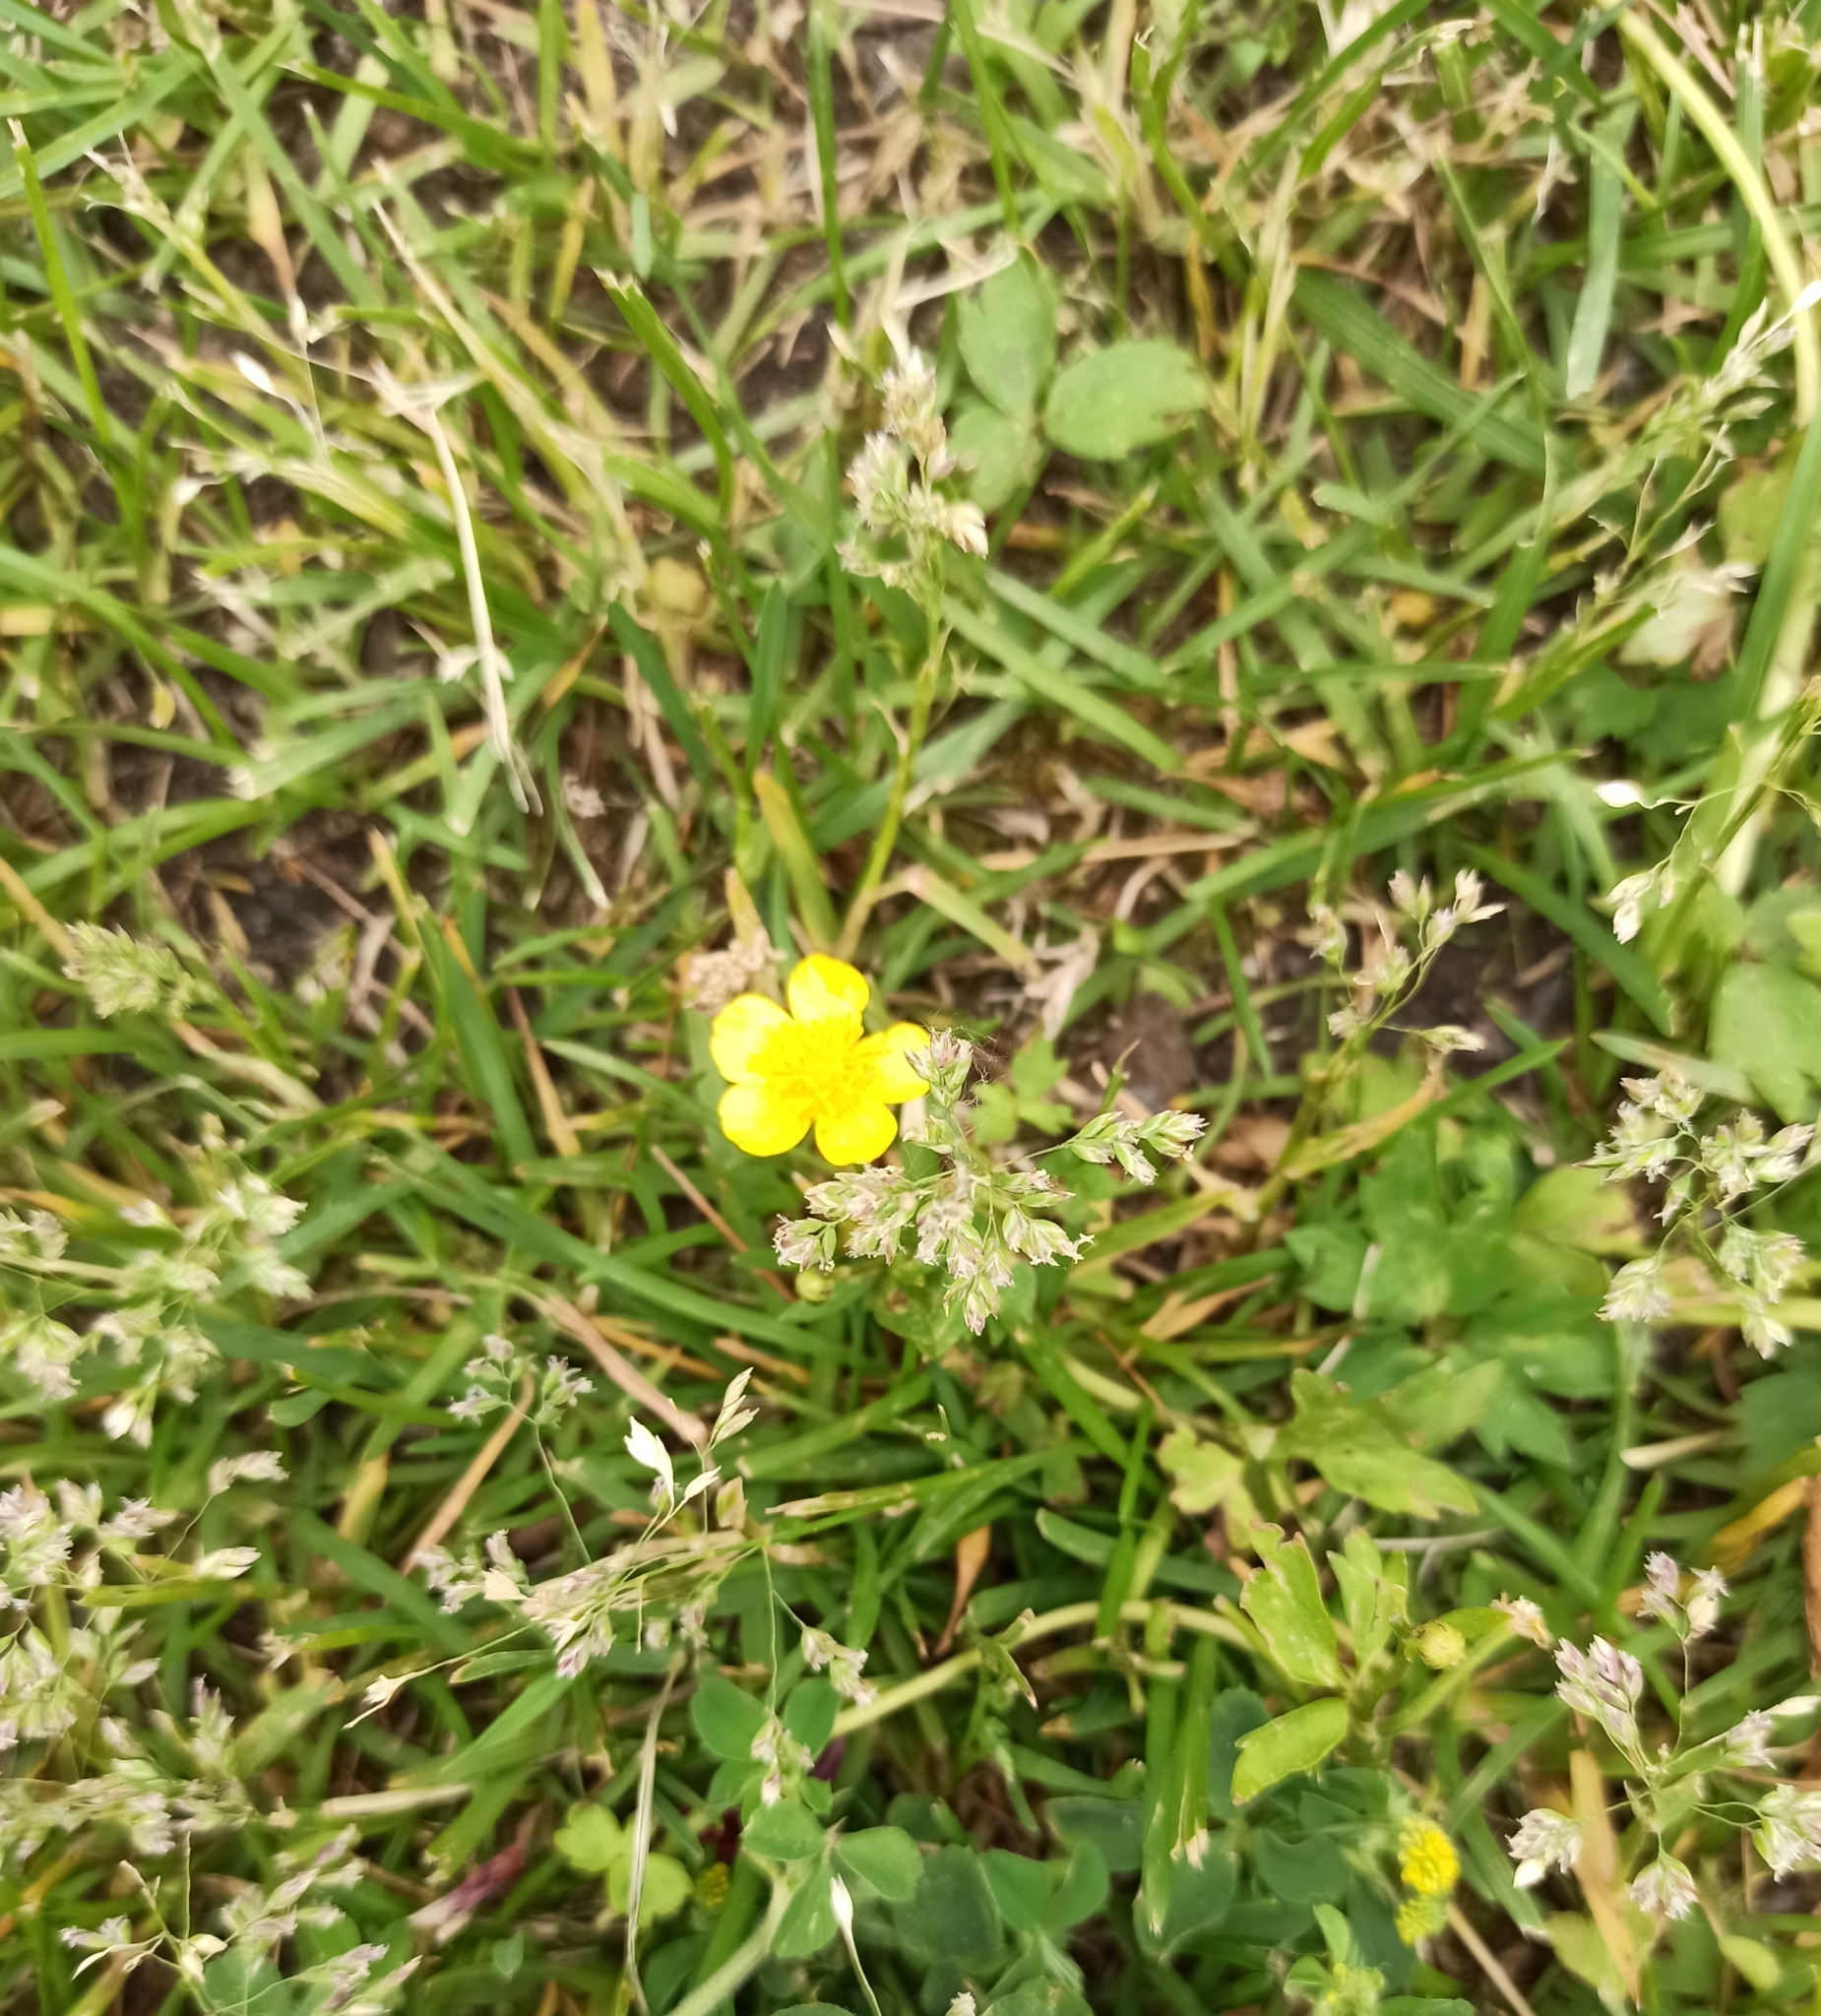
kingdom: Plantae
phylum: Tracheophyta
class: Magnoliopsida
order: Ranunculales
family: Ranunculaceae
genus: Ranunculus
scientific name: Ranunculus repens
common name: Creeping buttercup
